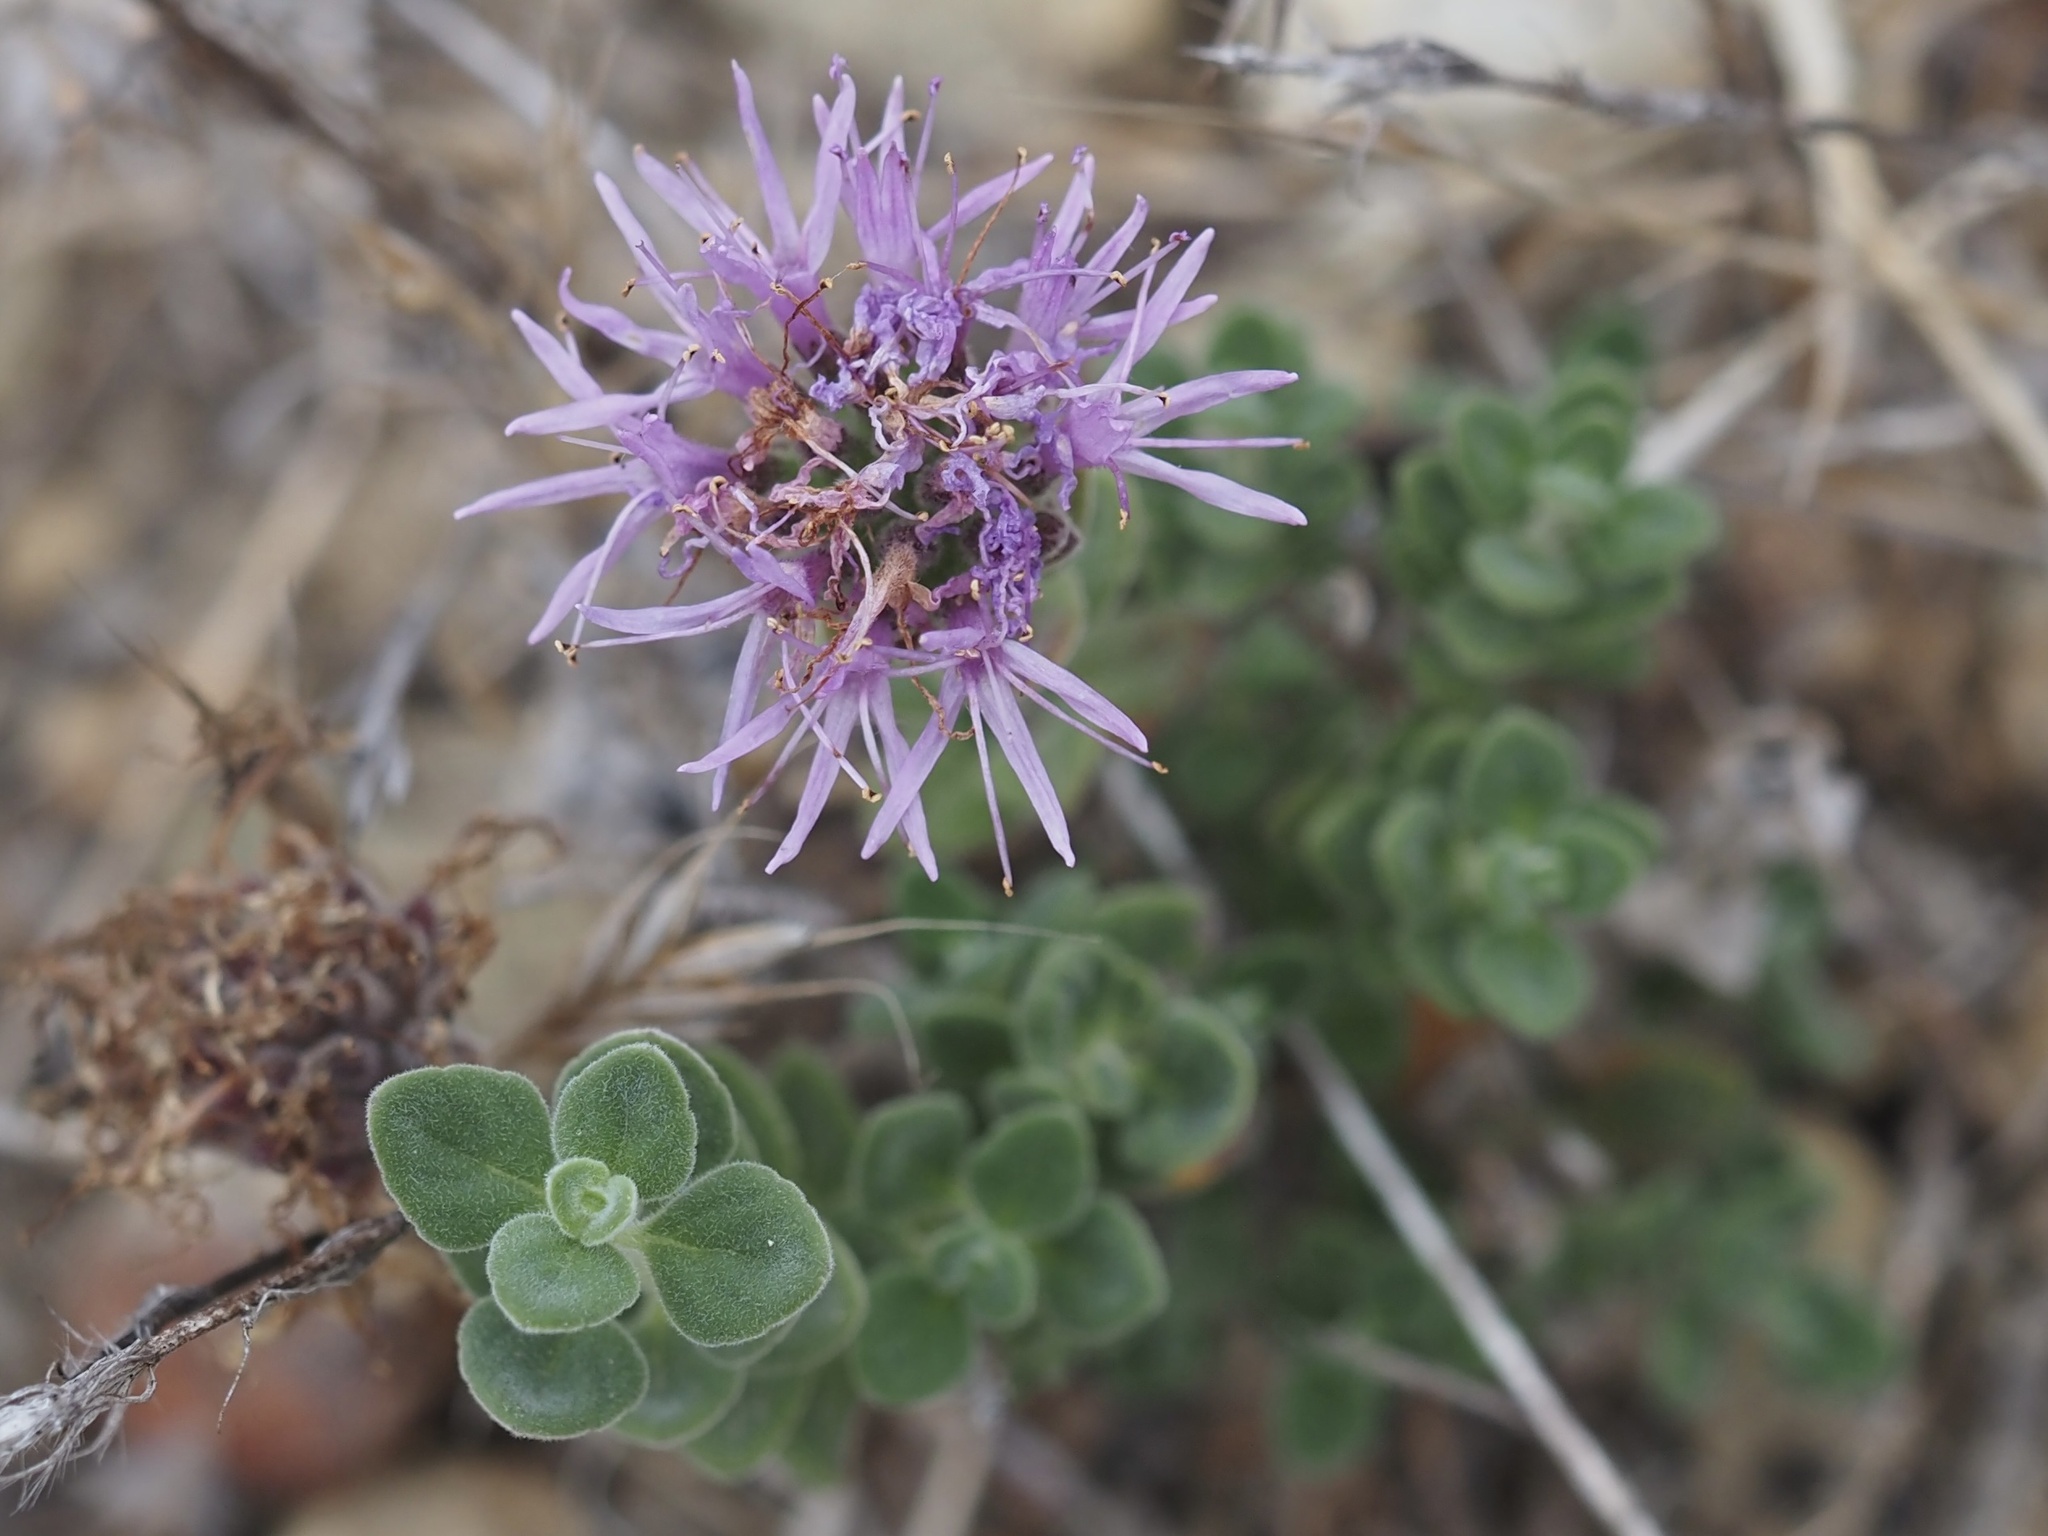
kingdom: Plantae
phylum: Tracheophyta
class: Magnoliopsida
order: Lamiales
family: Lamiaceae
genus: Monardella
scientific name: Monardella odoratissima
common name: Pacific monardella
